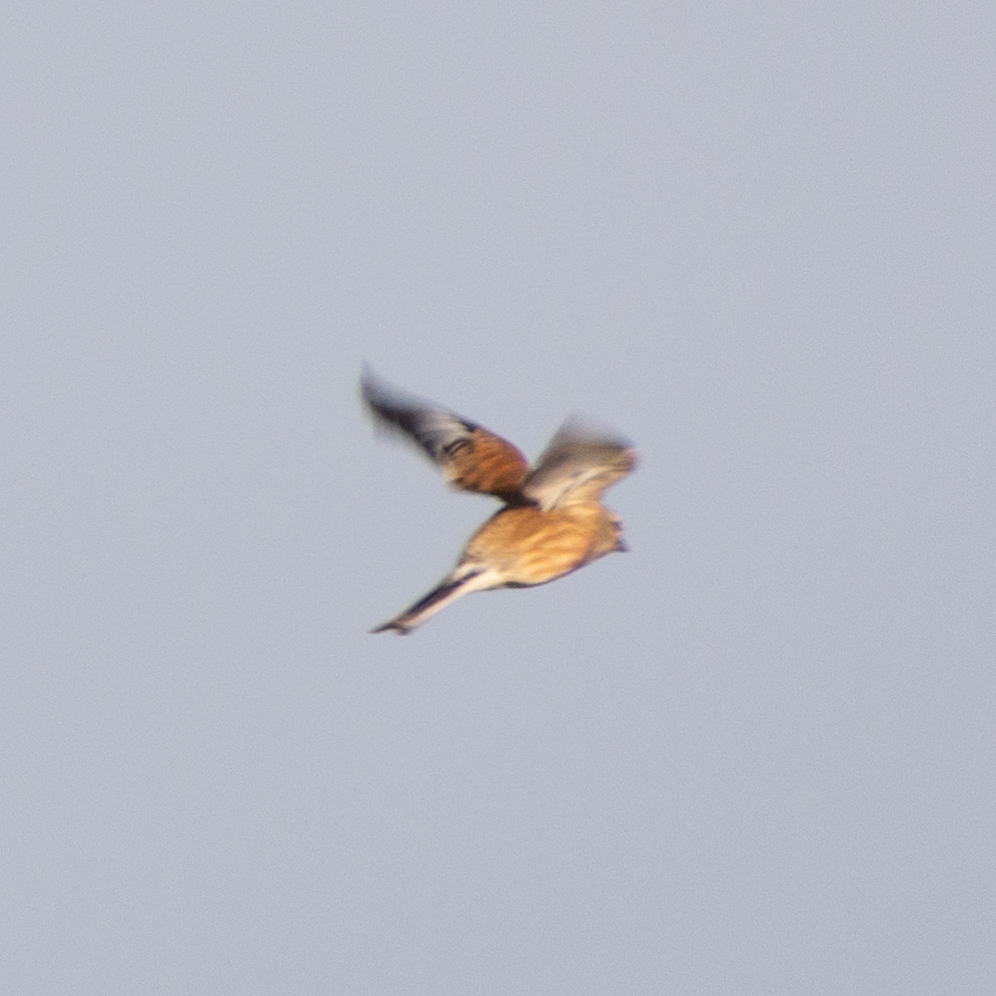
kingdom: Animalia
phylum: Chordata
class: Aves
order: Passeriformes
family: Fringillidae
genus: Linaria
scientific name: Linaria cannabina
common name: Common linnet
